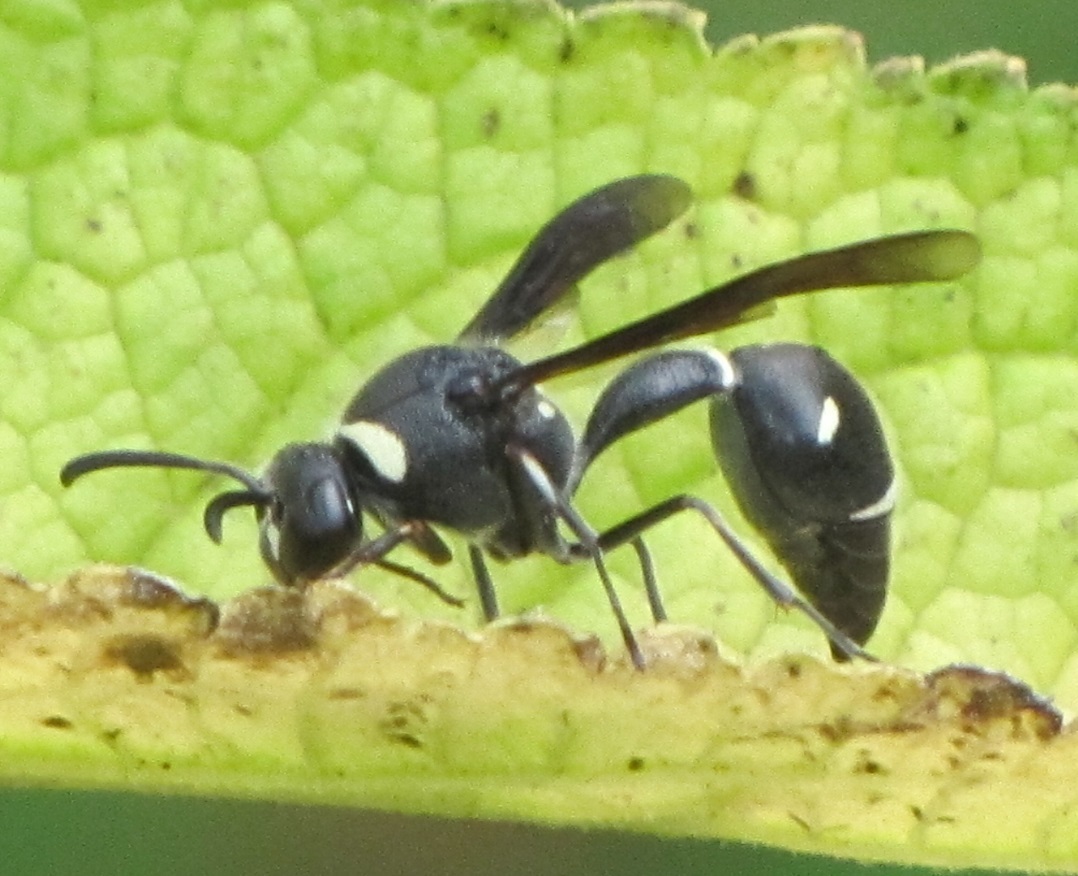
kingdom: Animalia
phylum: Arthropoda
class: Insecta
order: Hymenoptera
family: Vespidae
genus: Eumenes
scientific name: Eumenes fraternus
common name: Fraternal potter wasp
